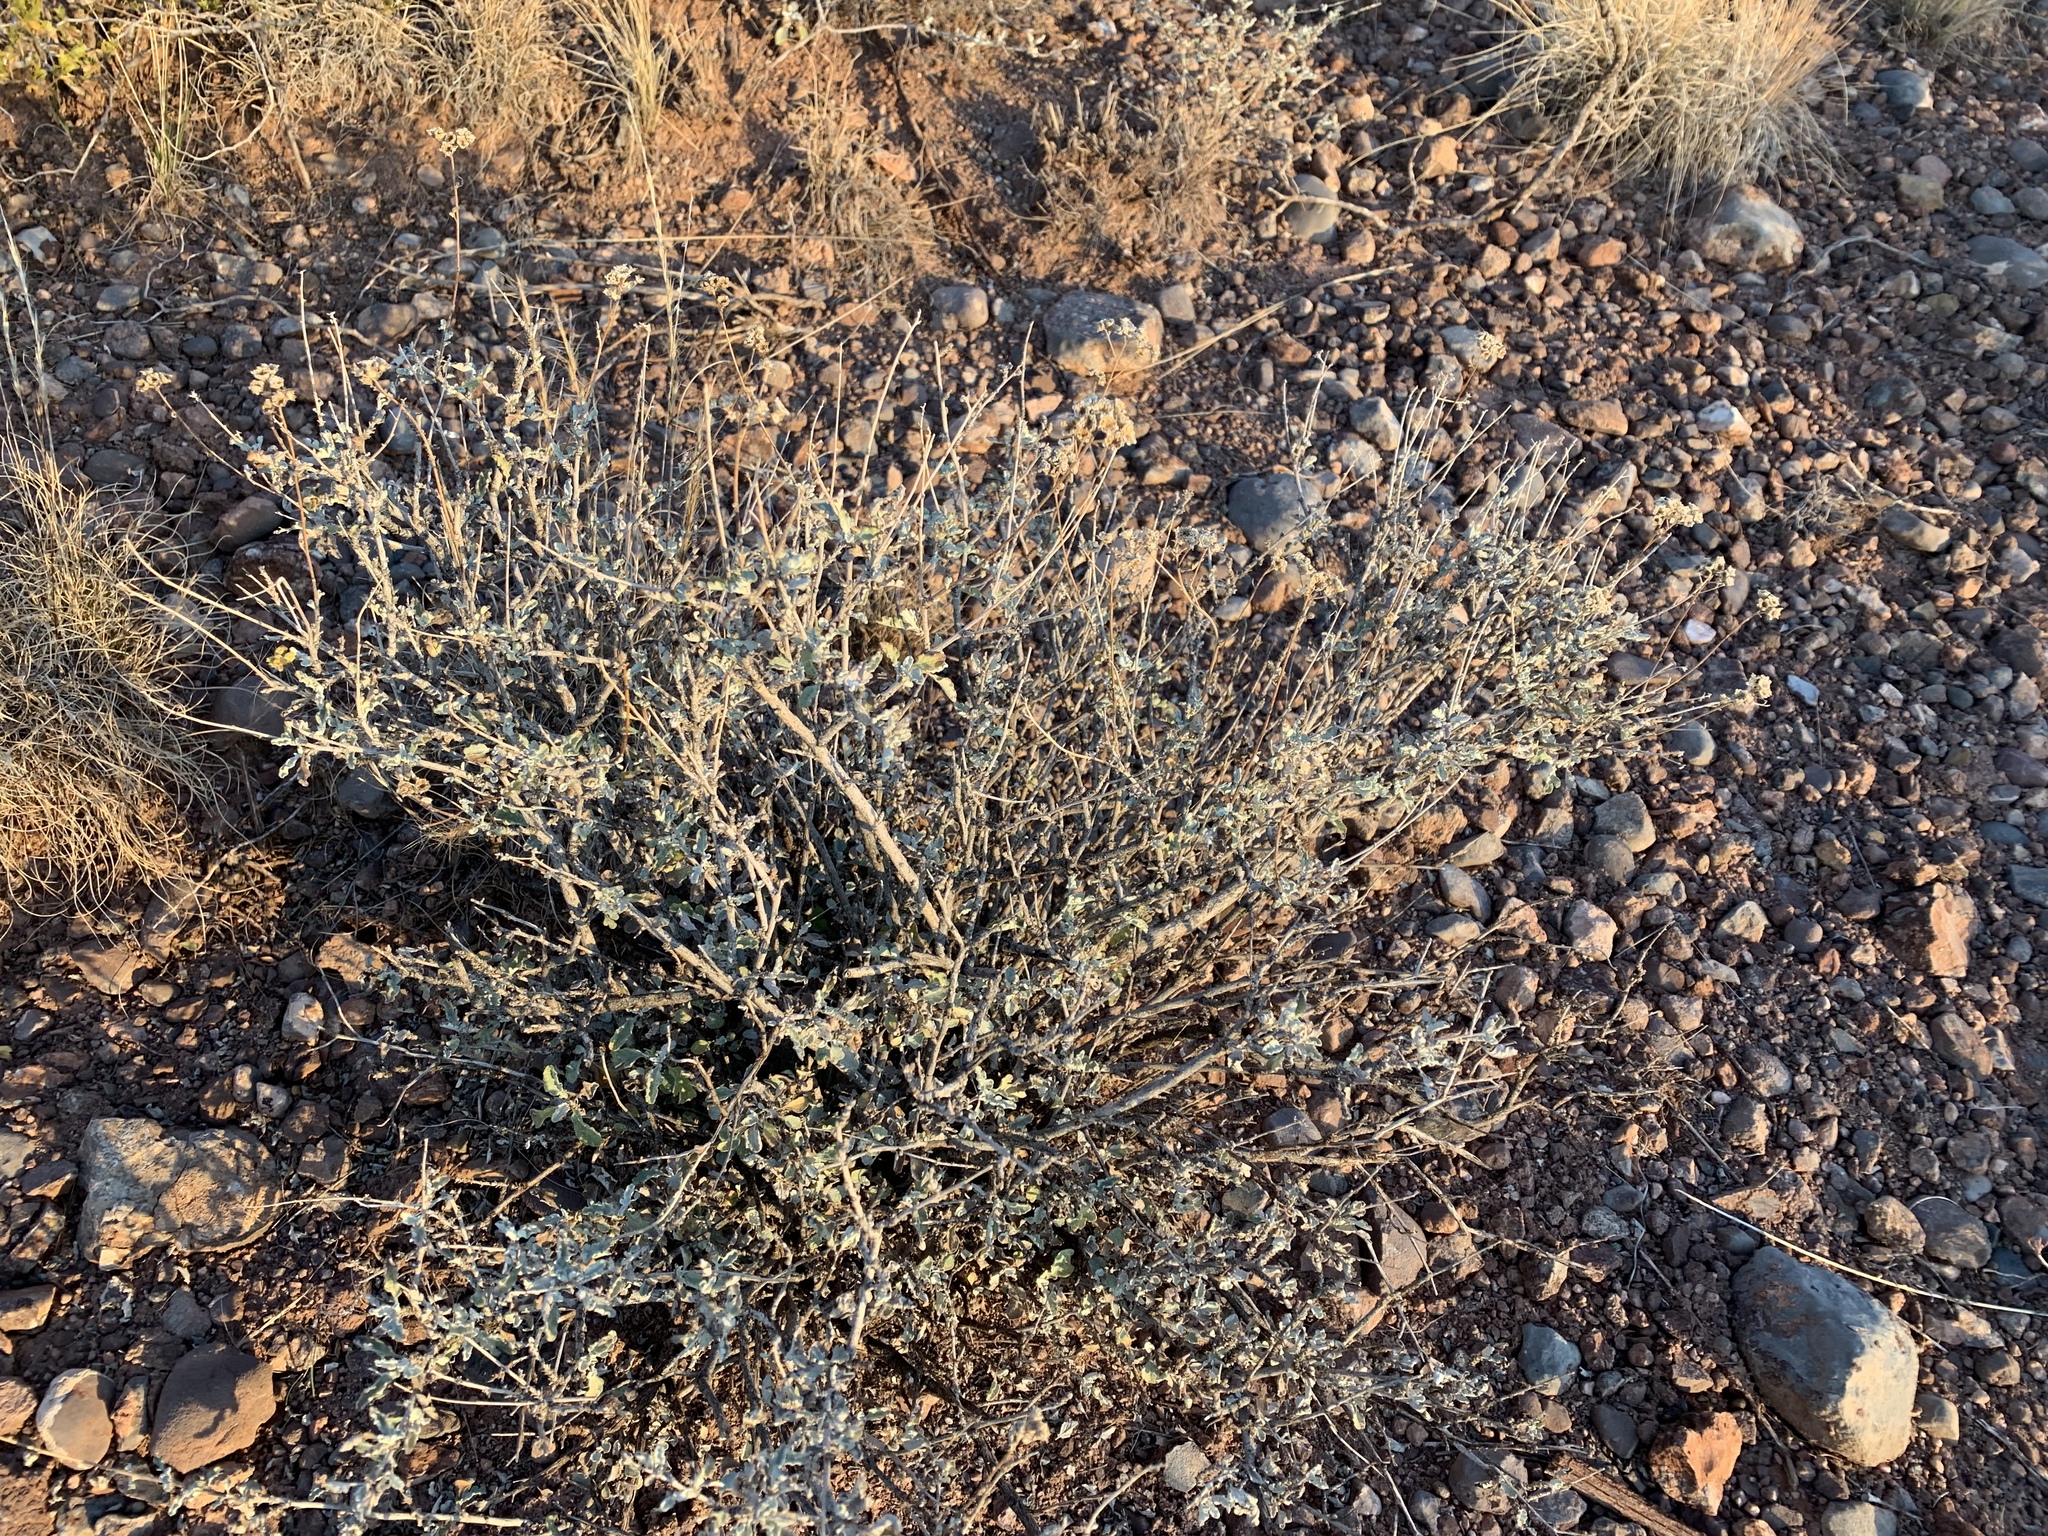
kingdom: Plantae
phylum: Tracheophyta
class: Magnoliopsida
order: Asterales
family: Asteraceae
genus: Parthenium
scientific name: Parthenium incanum
